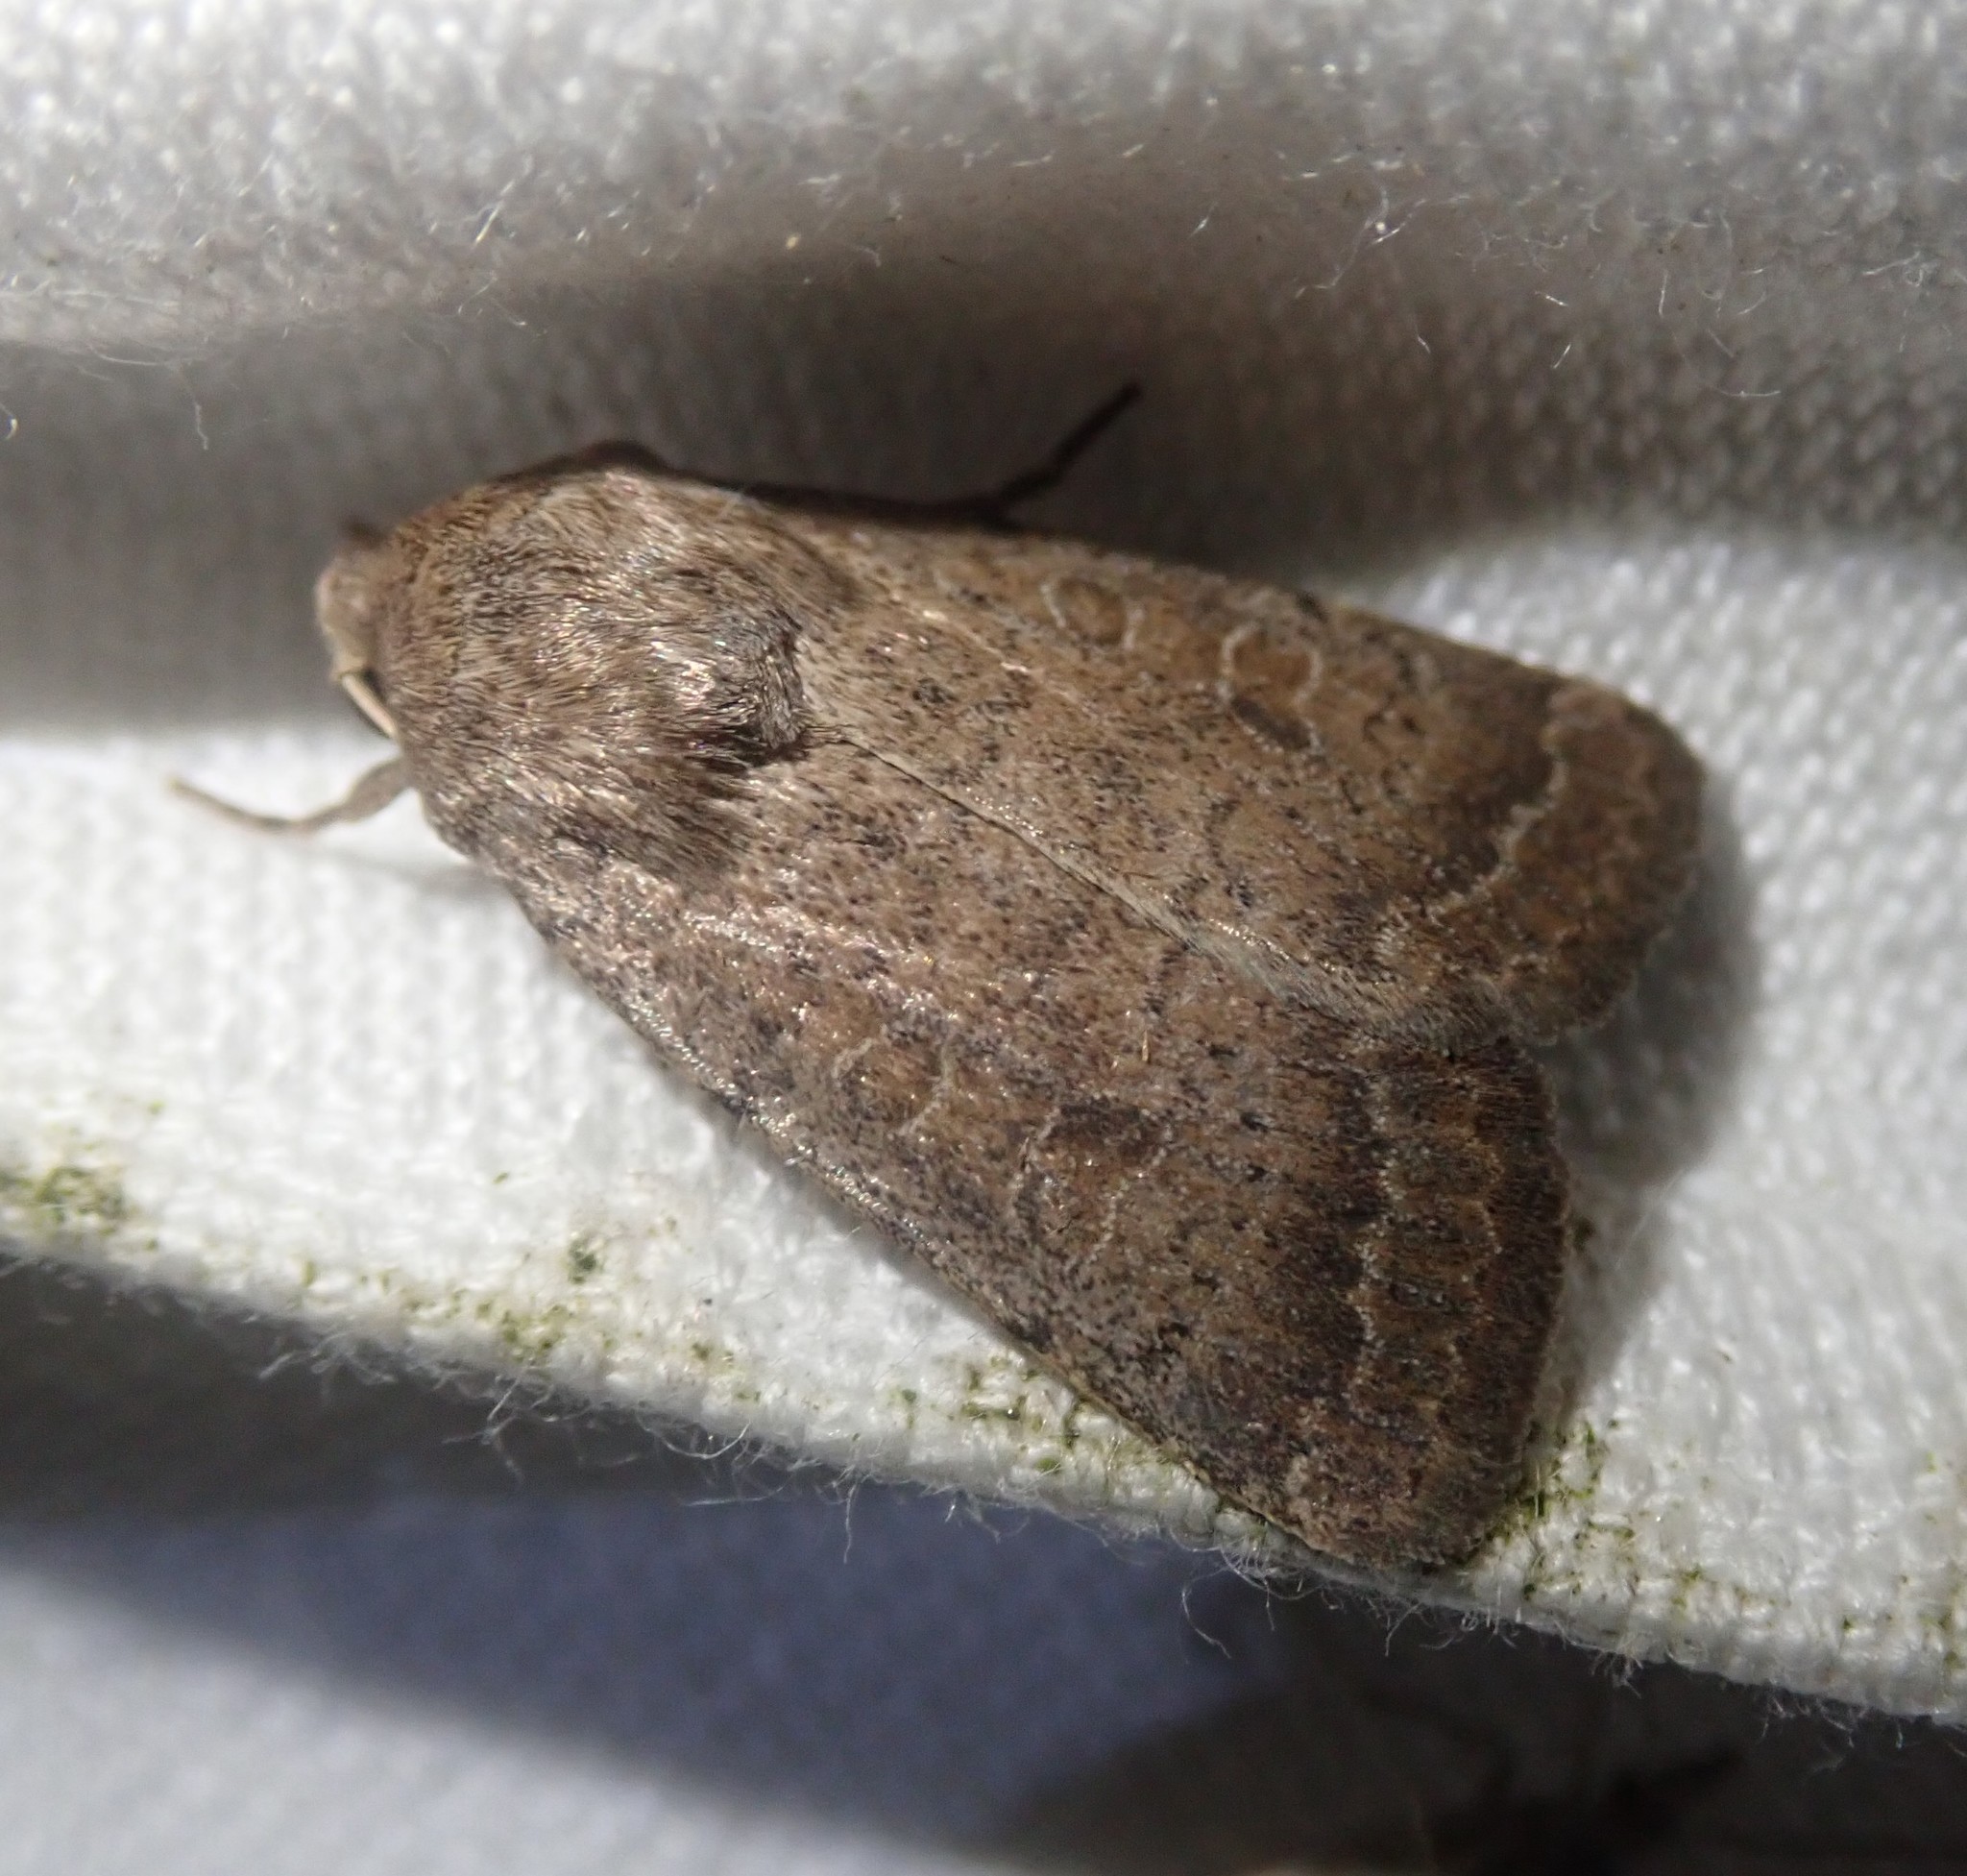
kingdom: Animalia
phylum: Arthropoda
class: Insecta
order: Lepidoptera
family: Noctuidae
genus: Hoplodrina
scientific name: Hoplodrina blanda
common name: Rustic
